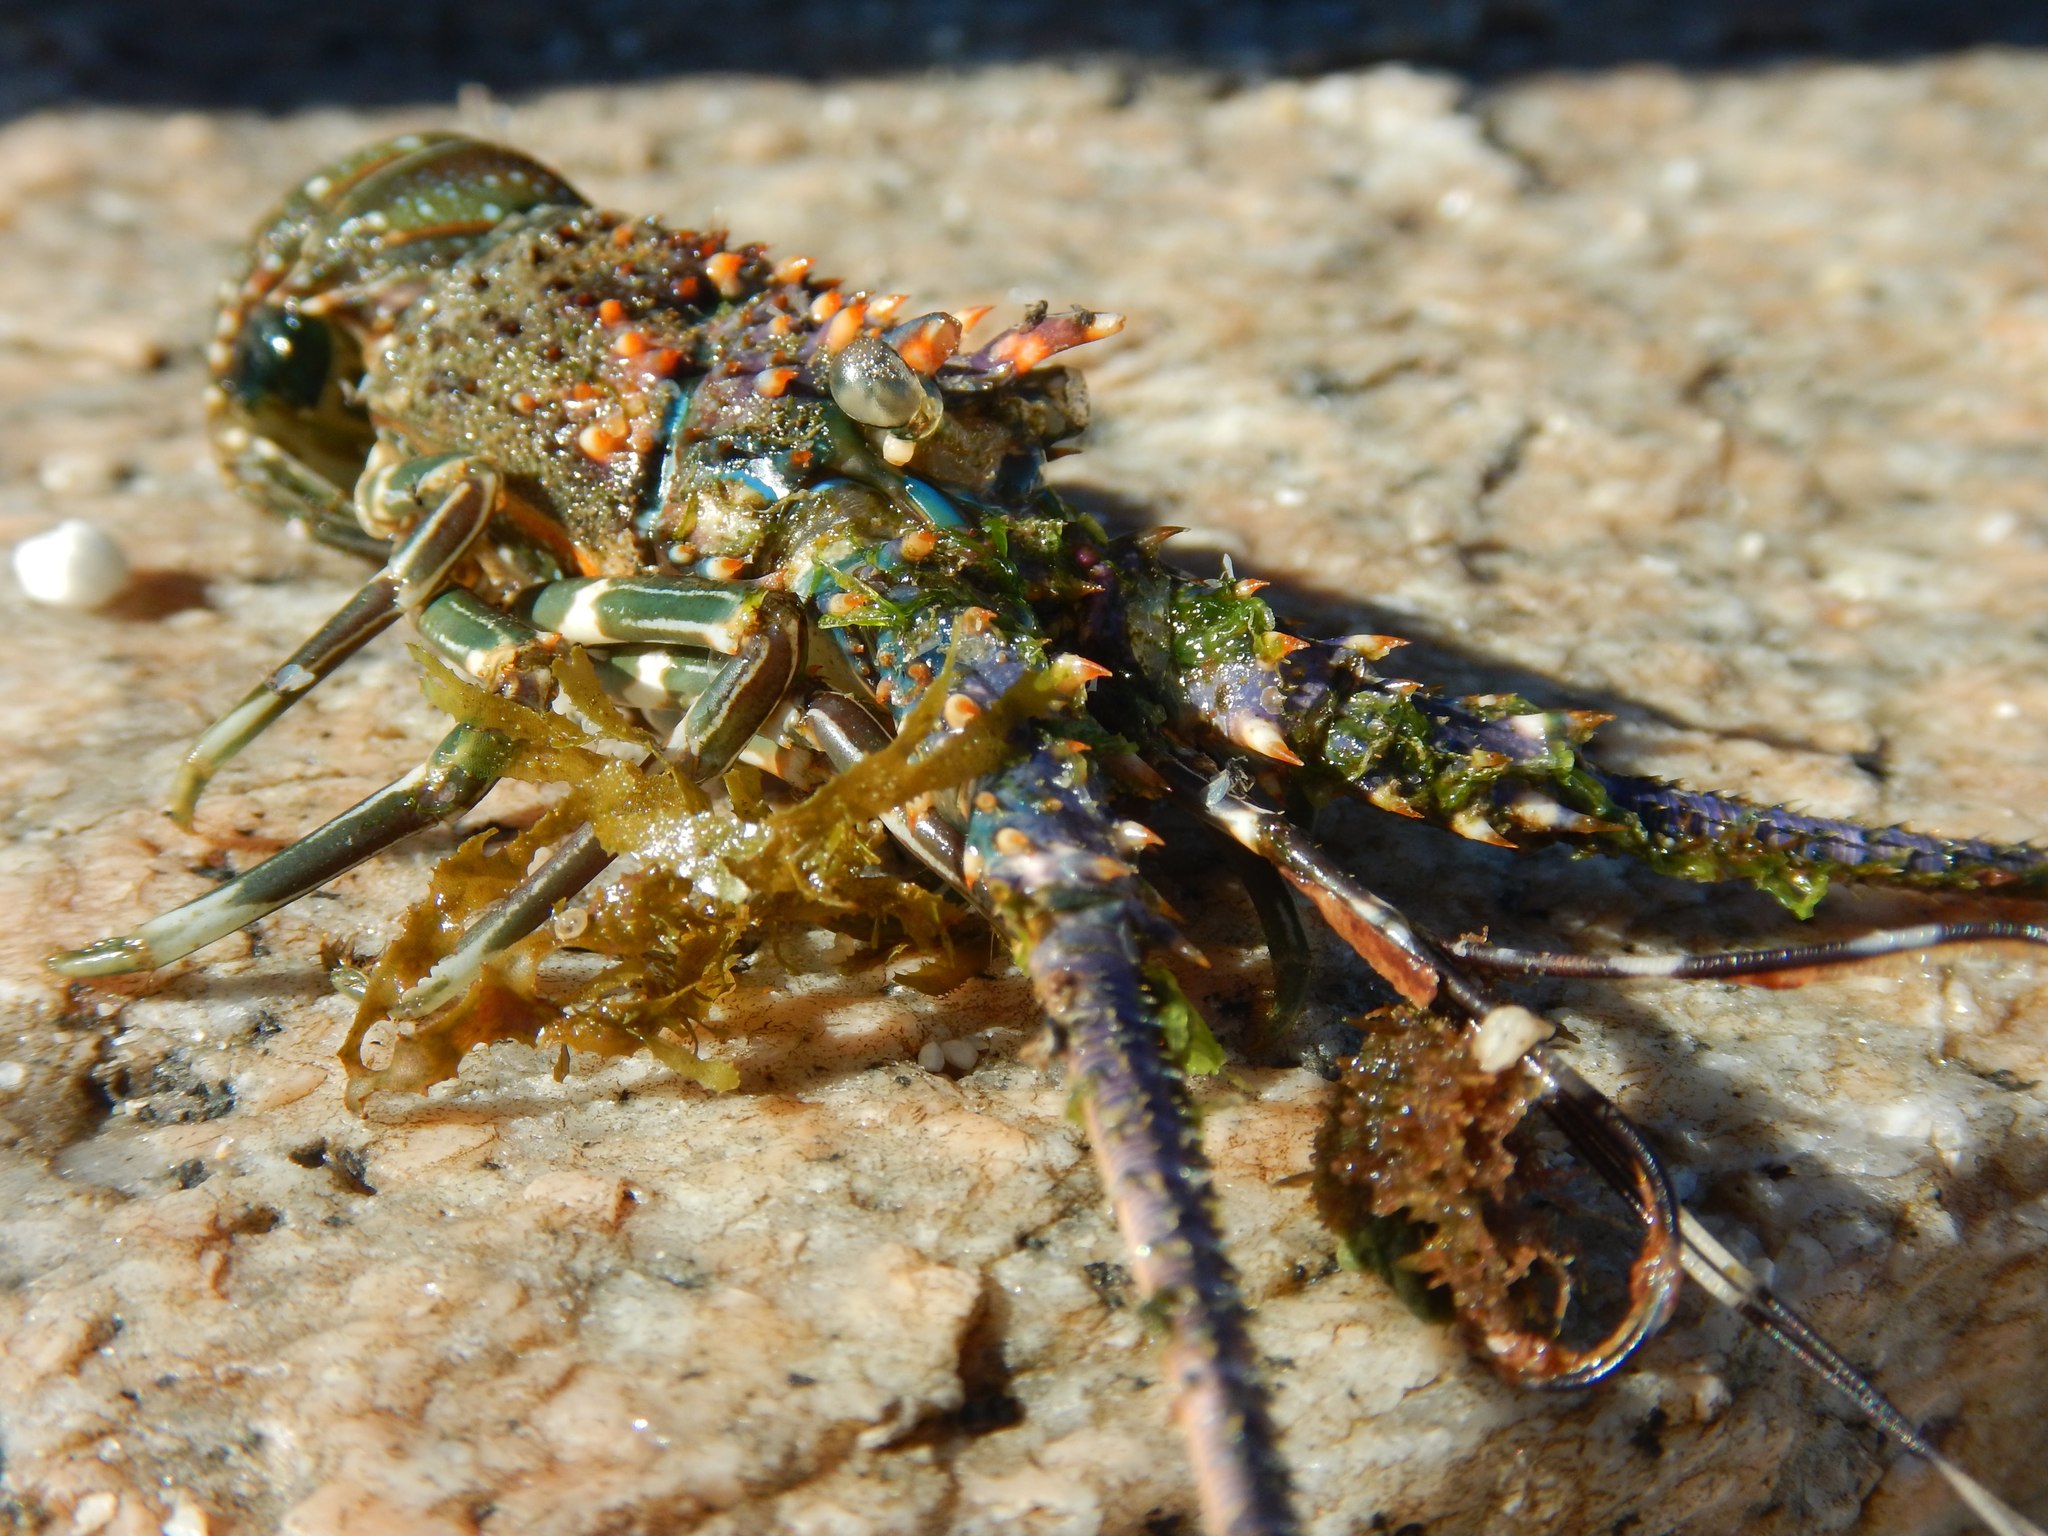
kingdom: Animalia
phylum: Arthropoda
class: Malacostraca
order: Decapoda
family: Palinuridae
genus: Panulirus
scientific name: Panulirus inflatus
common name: Blue spiny lobster
